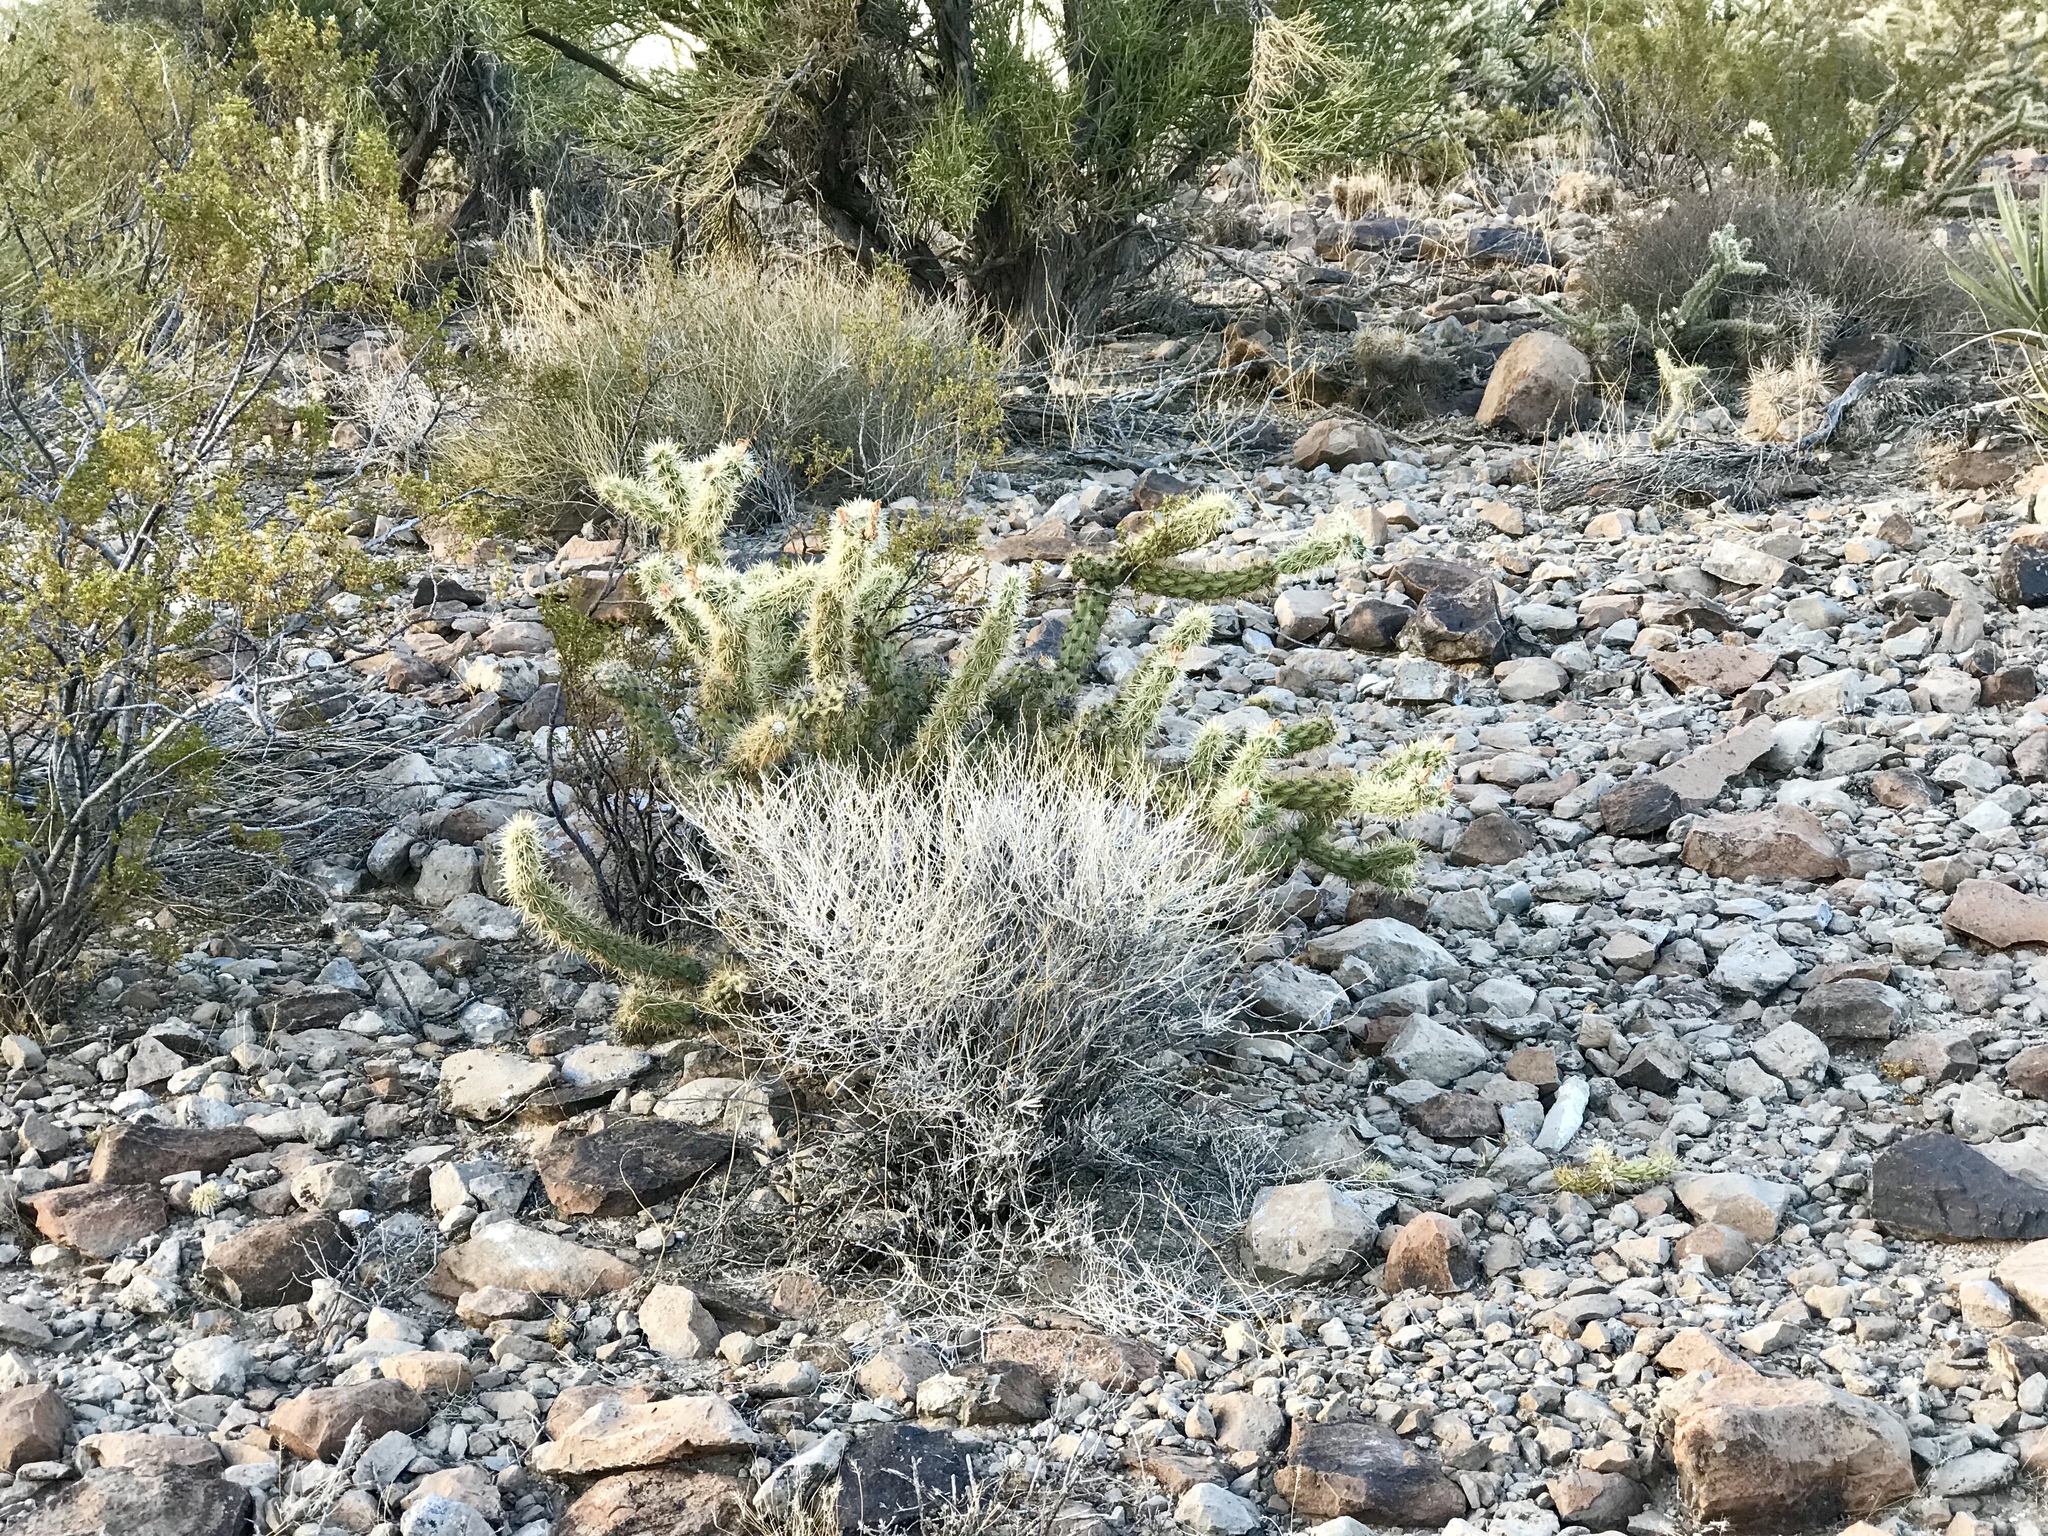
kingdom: Plantae
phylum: Tracheophyta
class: Magnoliopsida
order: Caryophyllales
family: Cactaceae
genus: Cylindropuntia
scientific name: Cylindropuntia acanthocarpa
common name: Buckhorn cholla
